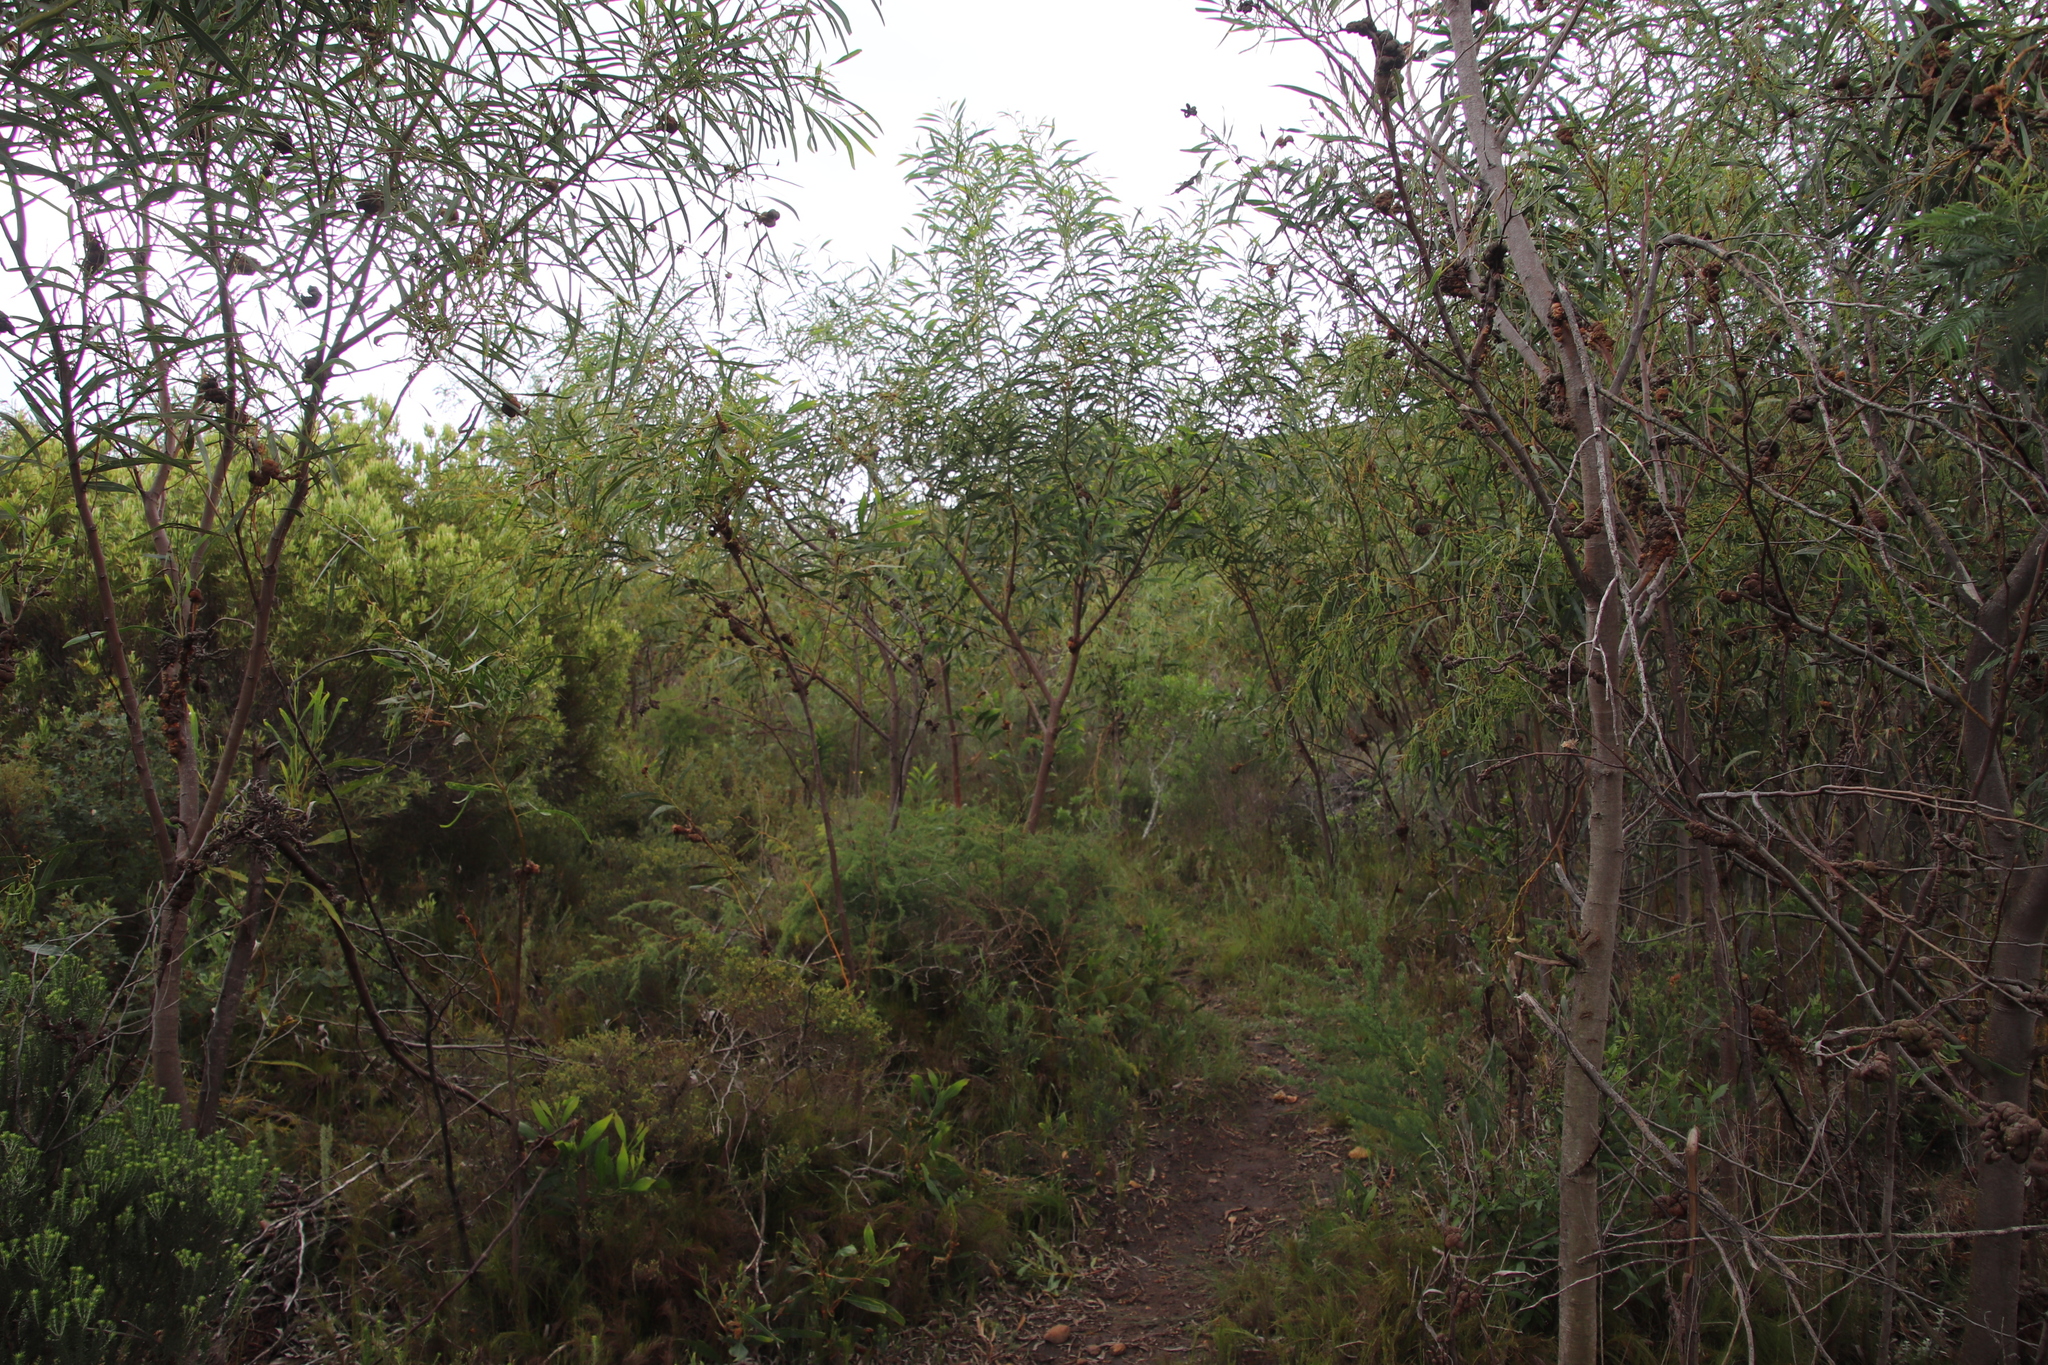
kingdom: Fungi
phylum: Basidiomycota
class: Pucciniomycetes
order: Pucciniales
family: Uromycladiaceae
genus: Uromycladium
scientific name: Uromycladium morrisii
